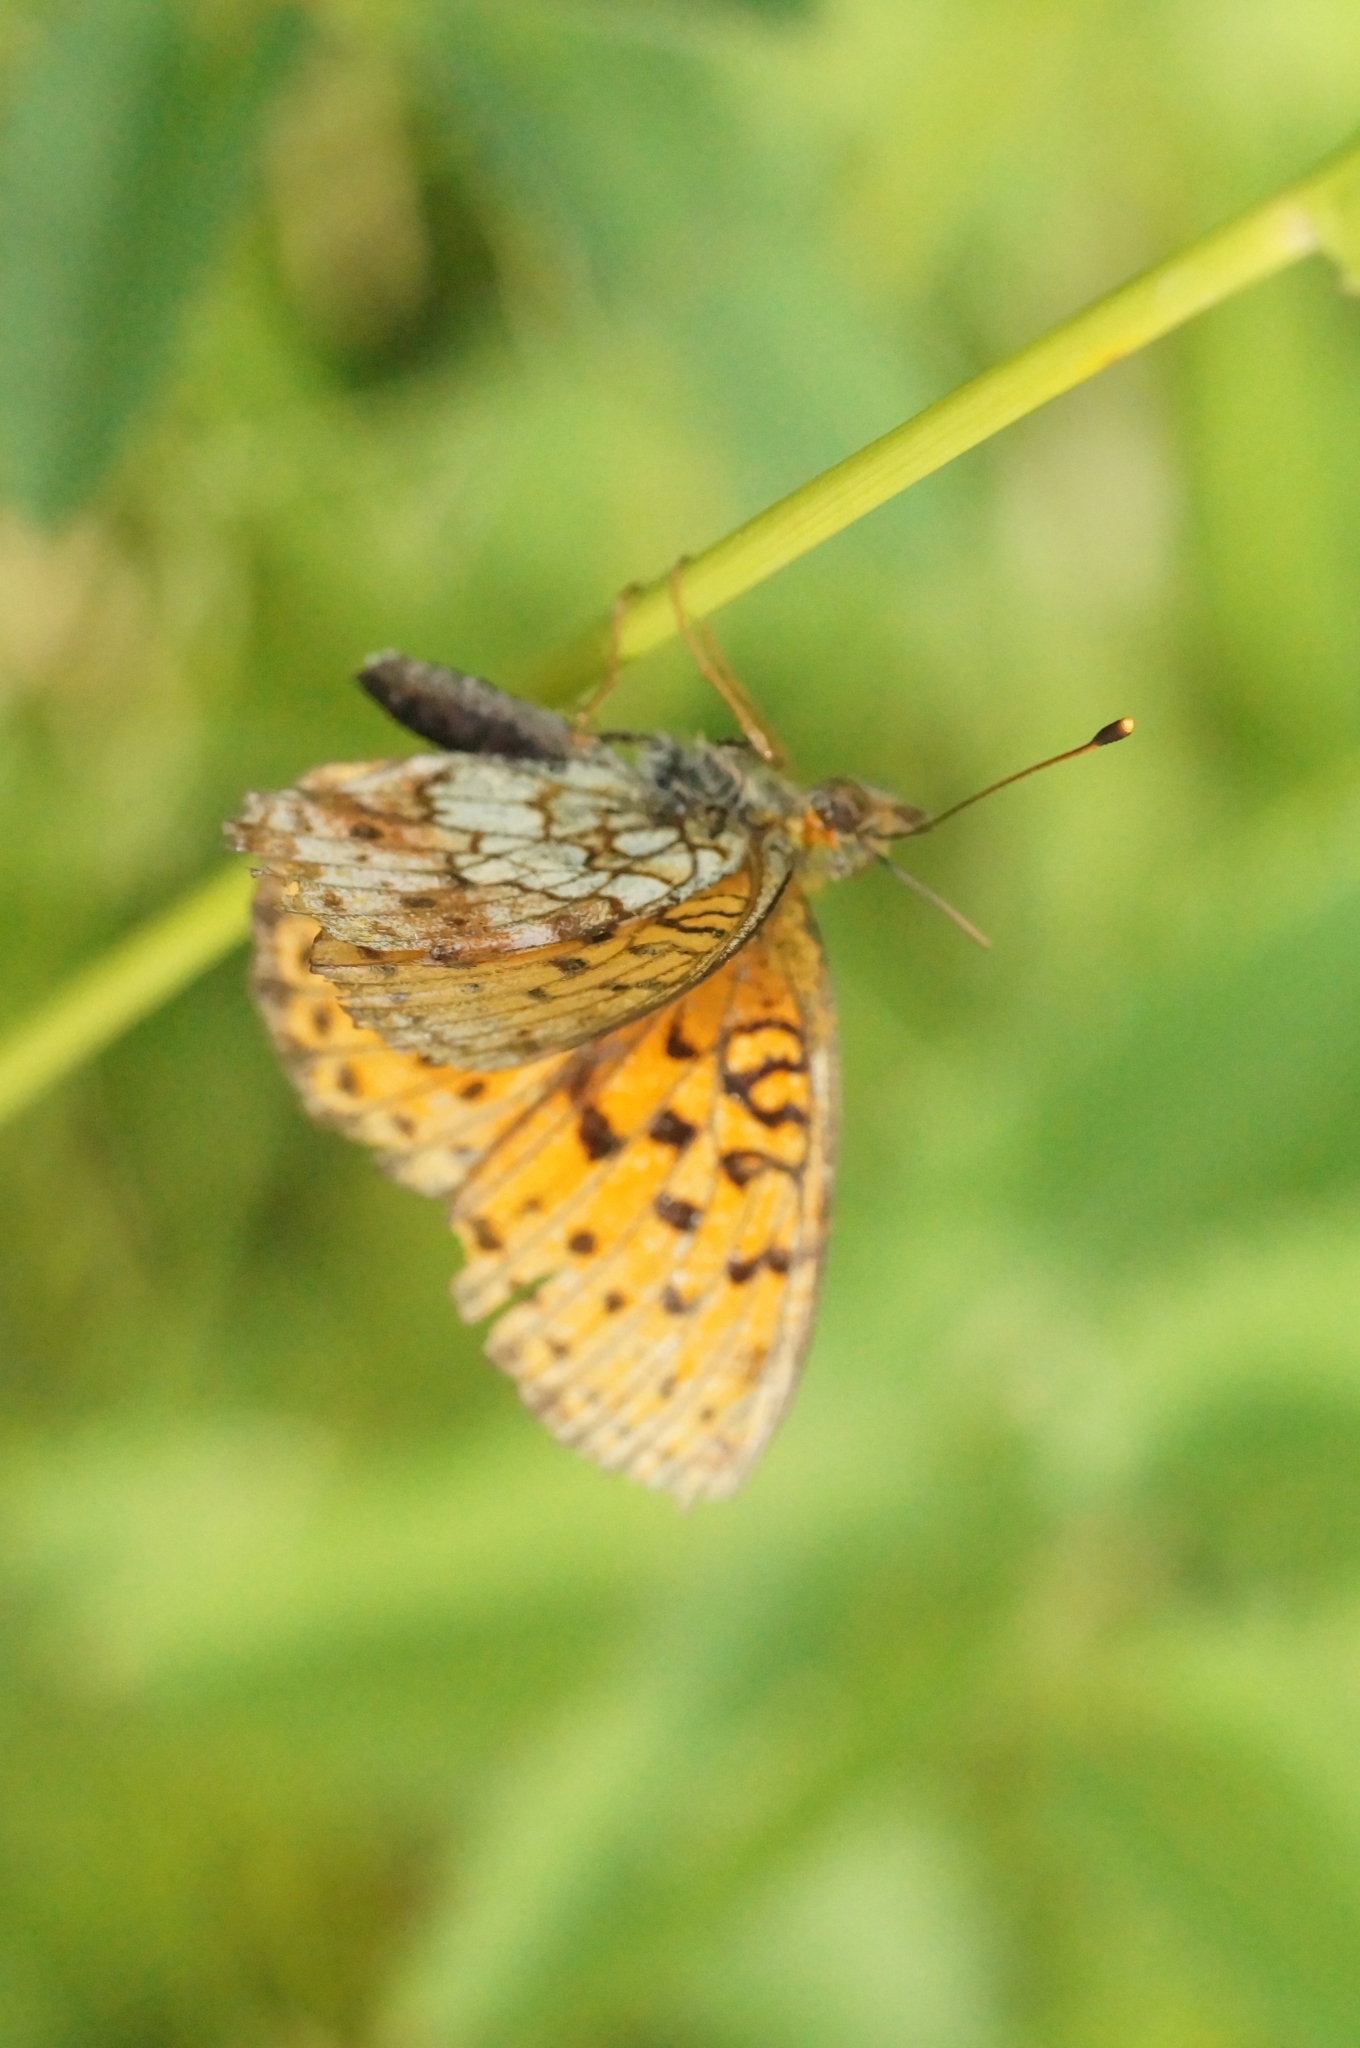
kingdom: Animalia
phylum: Arthropoda
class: Insecta
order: Lepidoptera
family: Nymphalidae
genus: Brenthis
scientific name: Brenthis ino
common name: Lesser marbled fritillary
